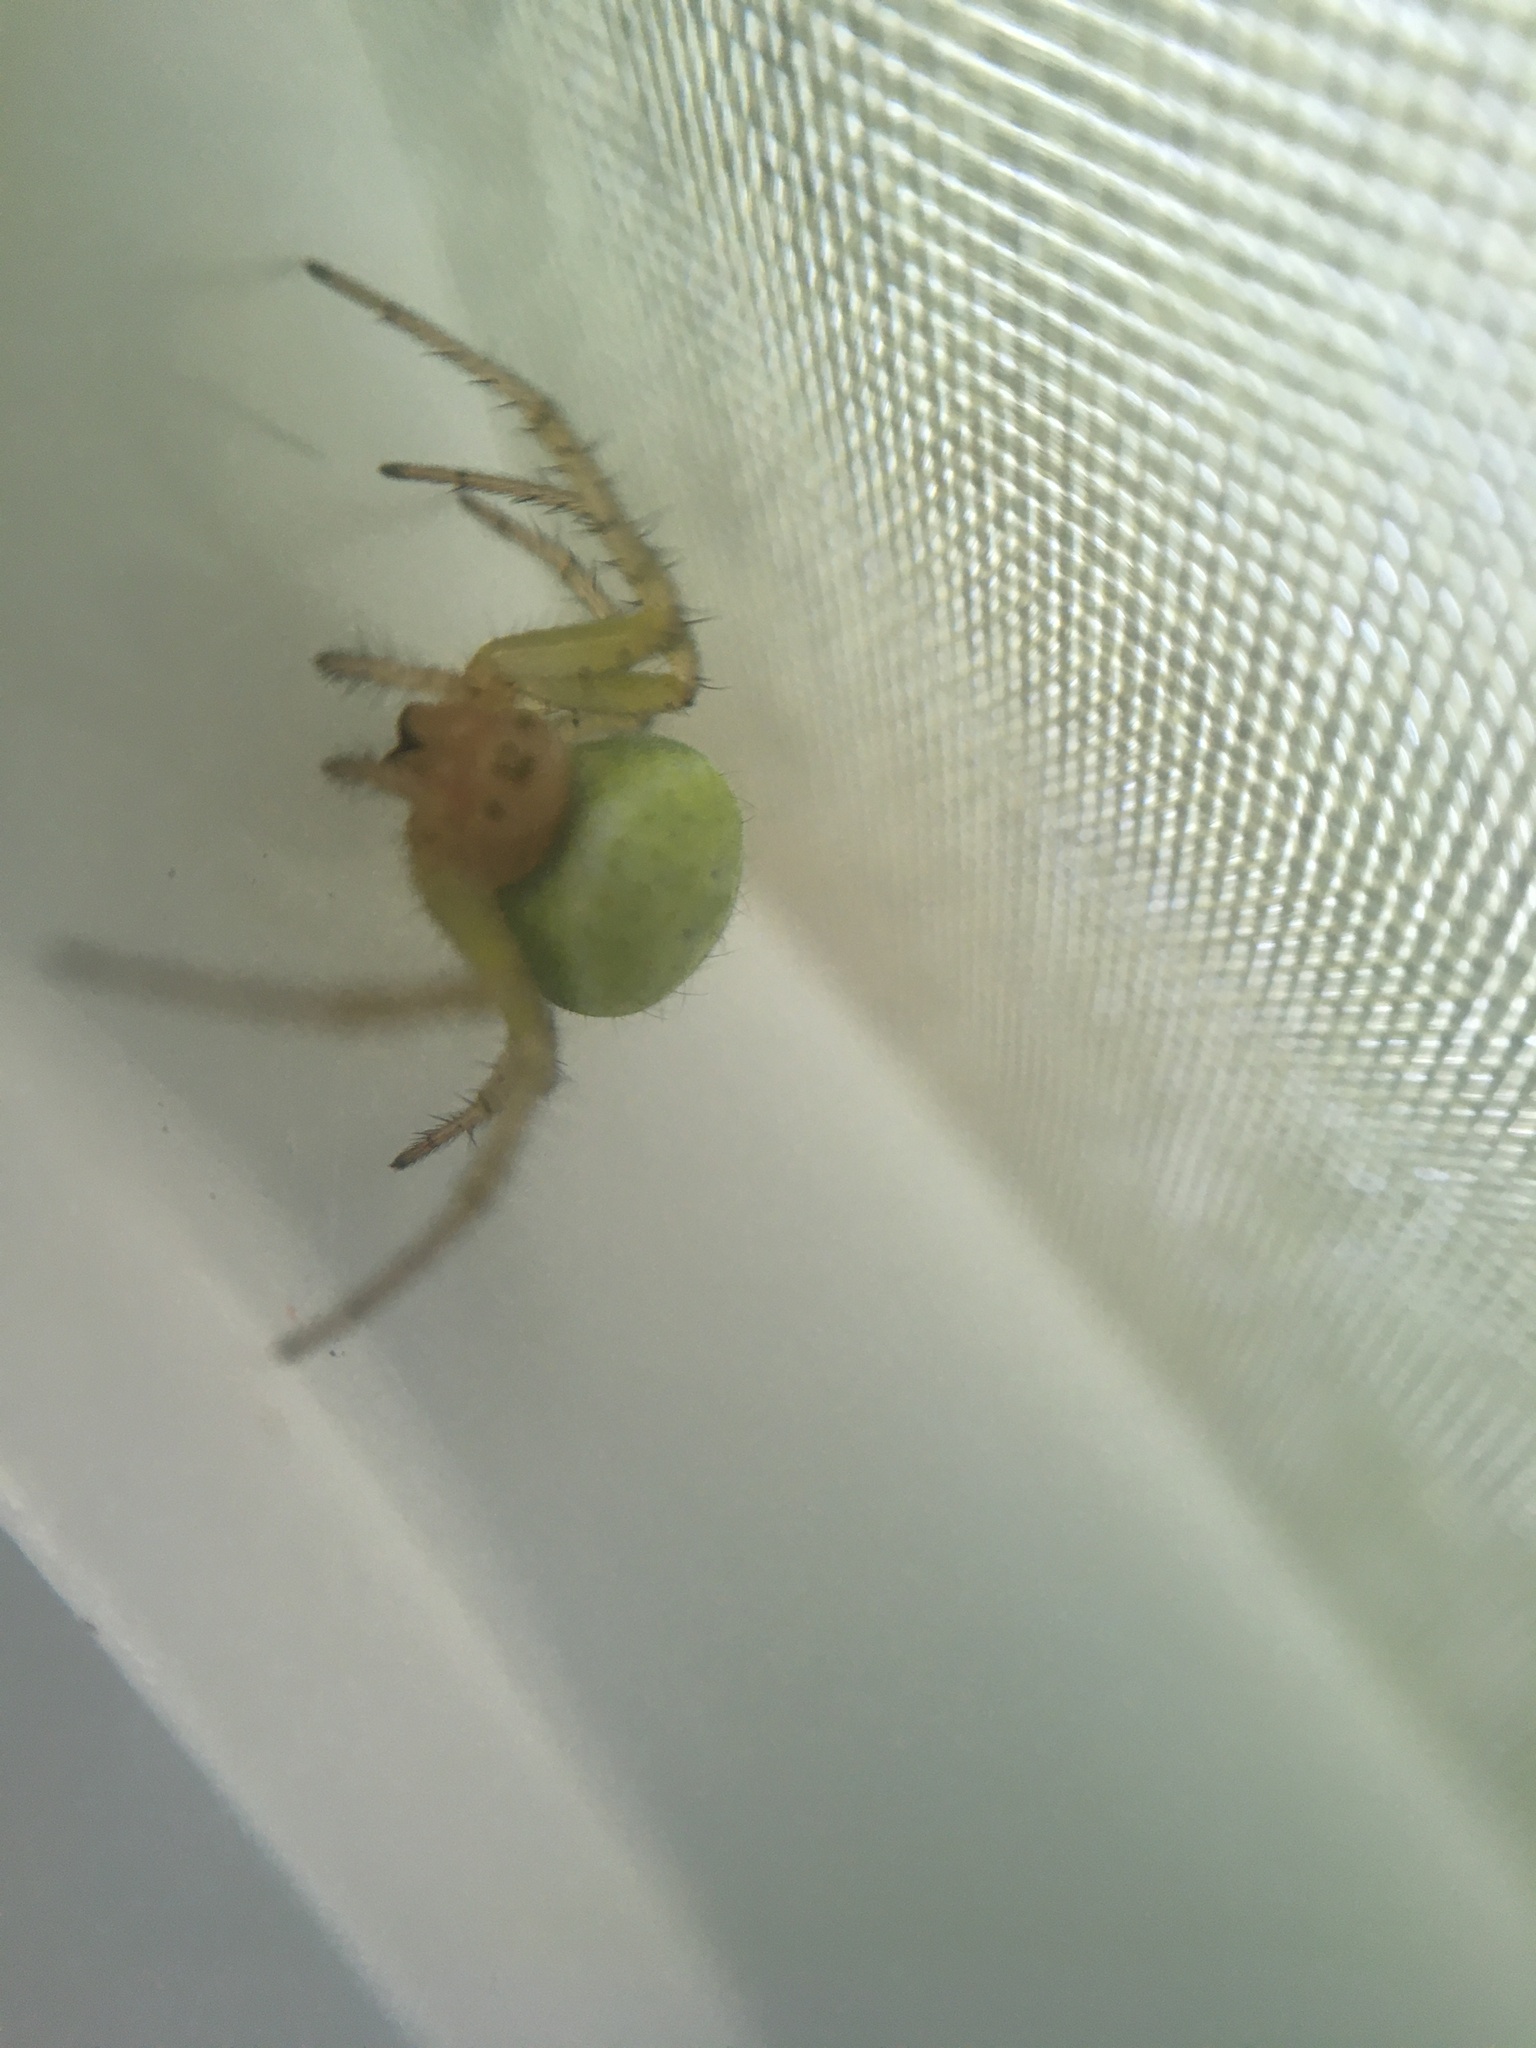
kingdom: Animalia
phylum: Arthropoda
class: Arachnida
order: Araneae
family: Araneidae
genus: Araniella
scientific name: Araniella
